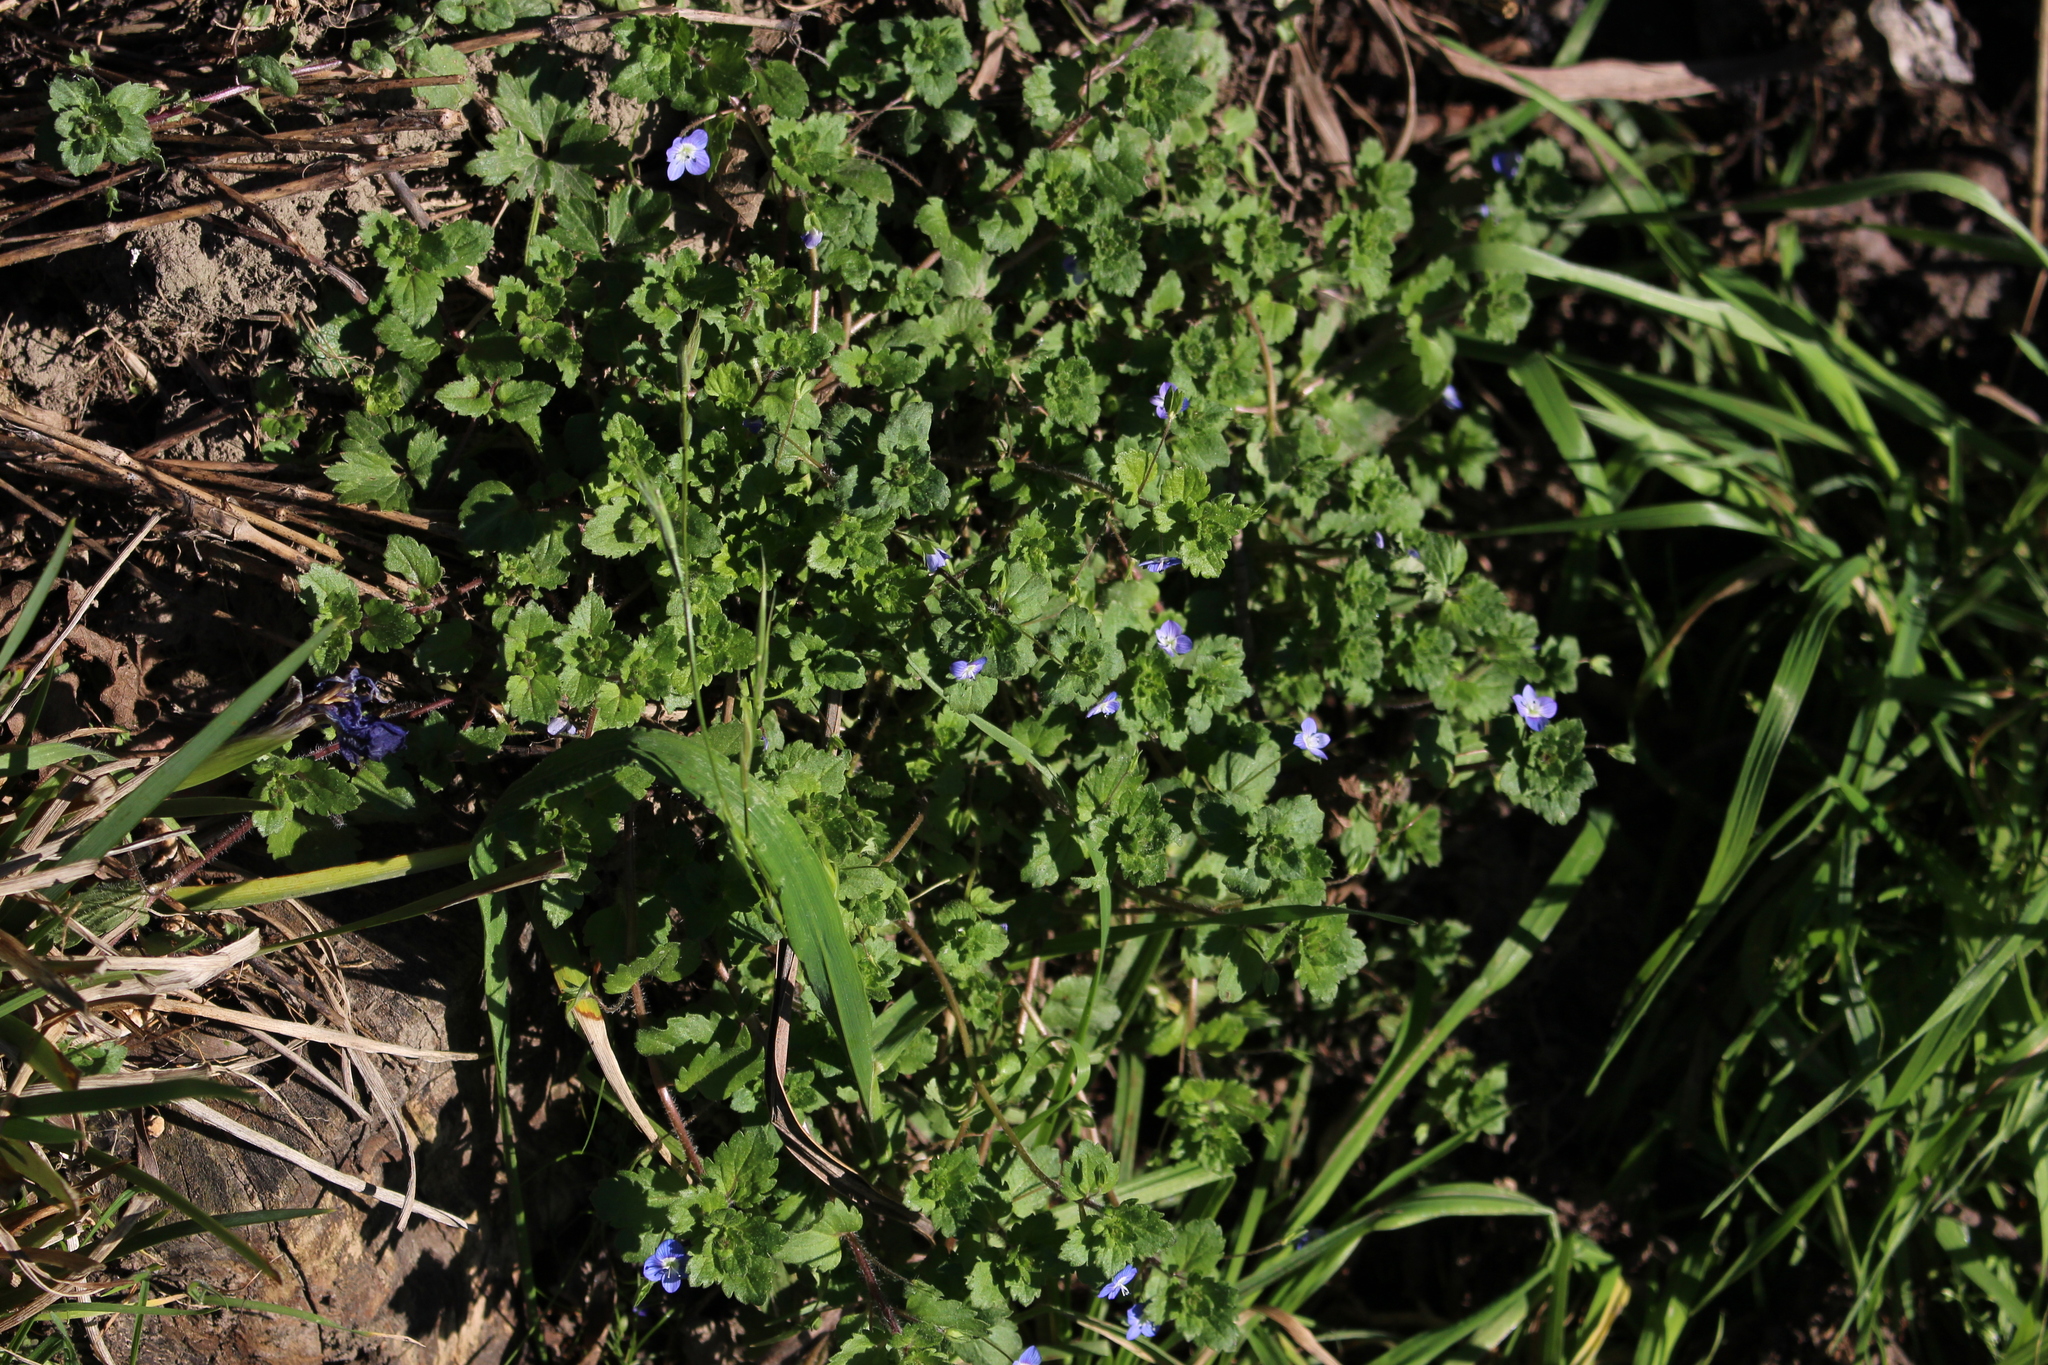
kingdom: Plantae
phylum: Tracheophyta
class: Magnoliopsida
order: Lamiales
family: Plantaginaceae
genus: Veronica
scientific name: Veronica persica
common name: Common field-speedwell
